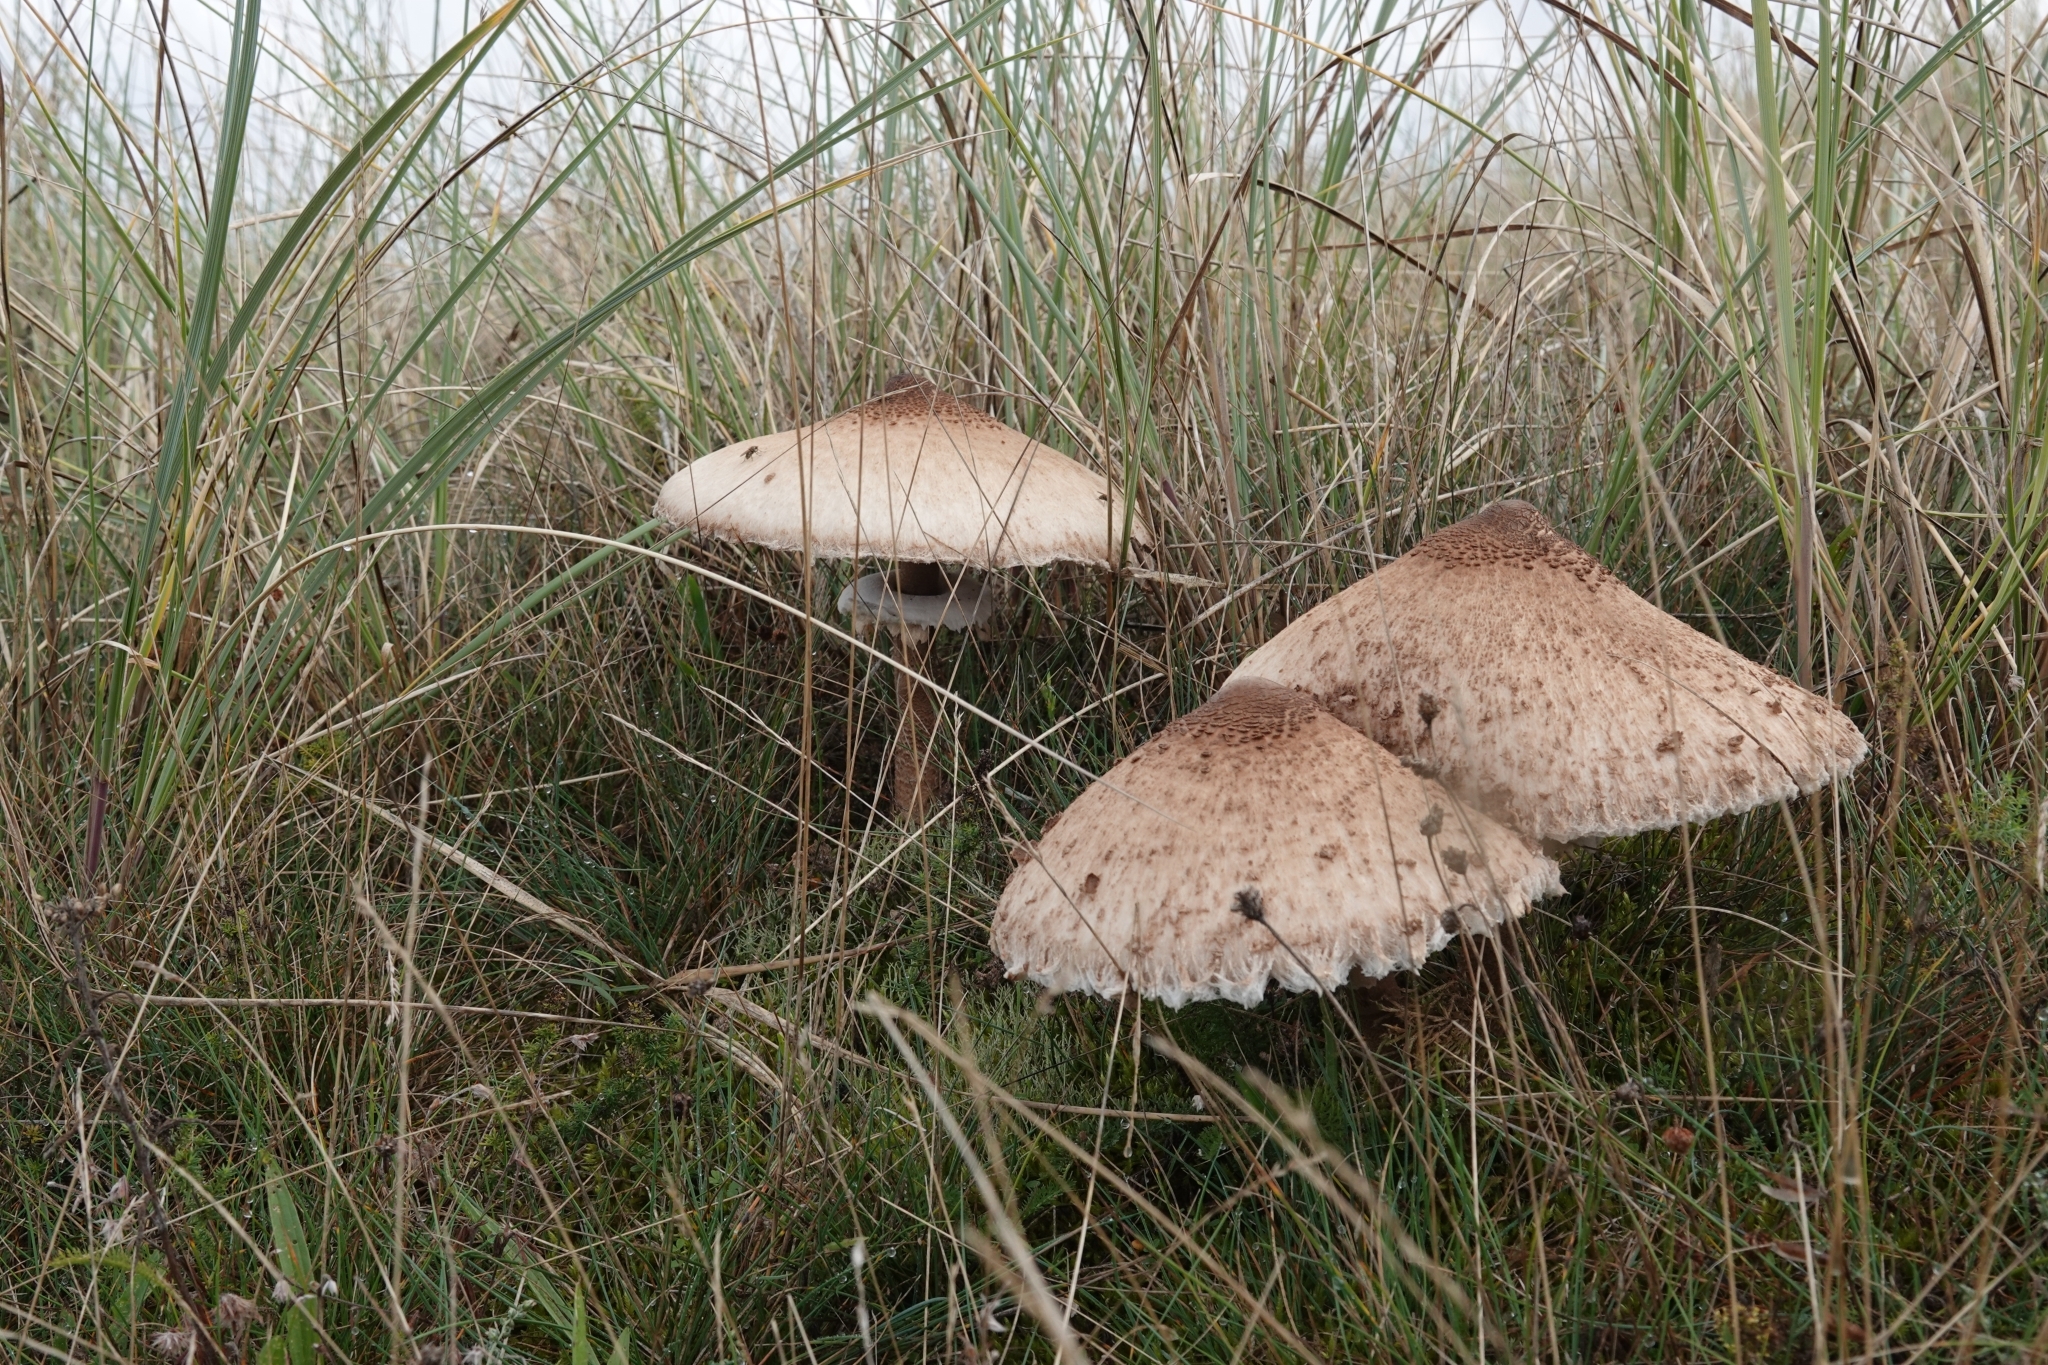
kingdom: Fungi
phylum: Basidiomycota
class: Agaricomycetes
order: Agaricales
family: Agaricaceae
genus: Macrolepiota
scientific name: Macrolepiota procera
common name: Parasol
